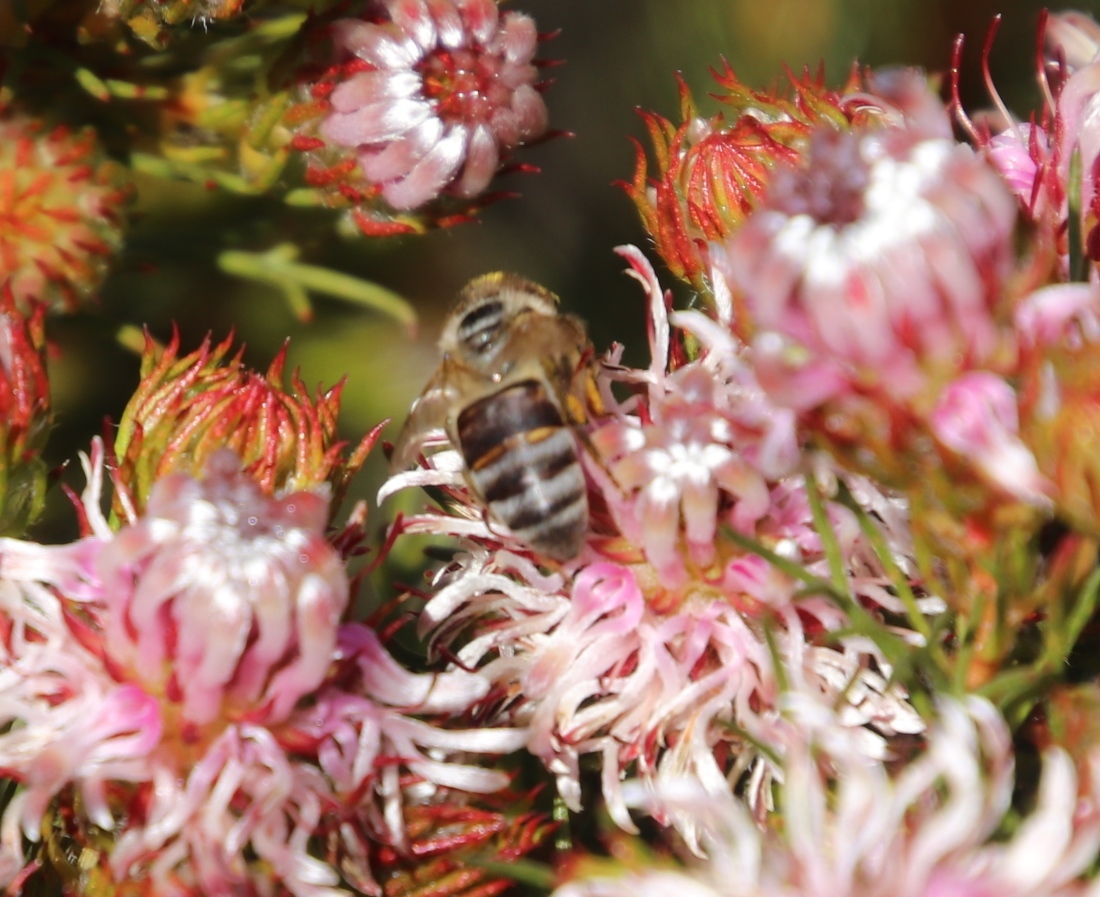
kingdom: Plantae
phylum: Tracheophyta
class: Magnoliopsida
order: Proteales
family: Proteaceae
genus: Serruria
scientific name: Serruria aemula
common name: Strawberry spiderhead
